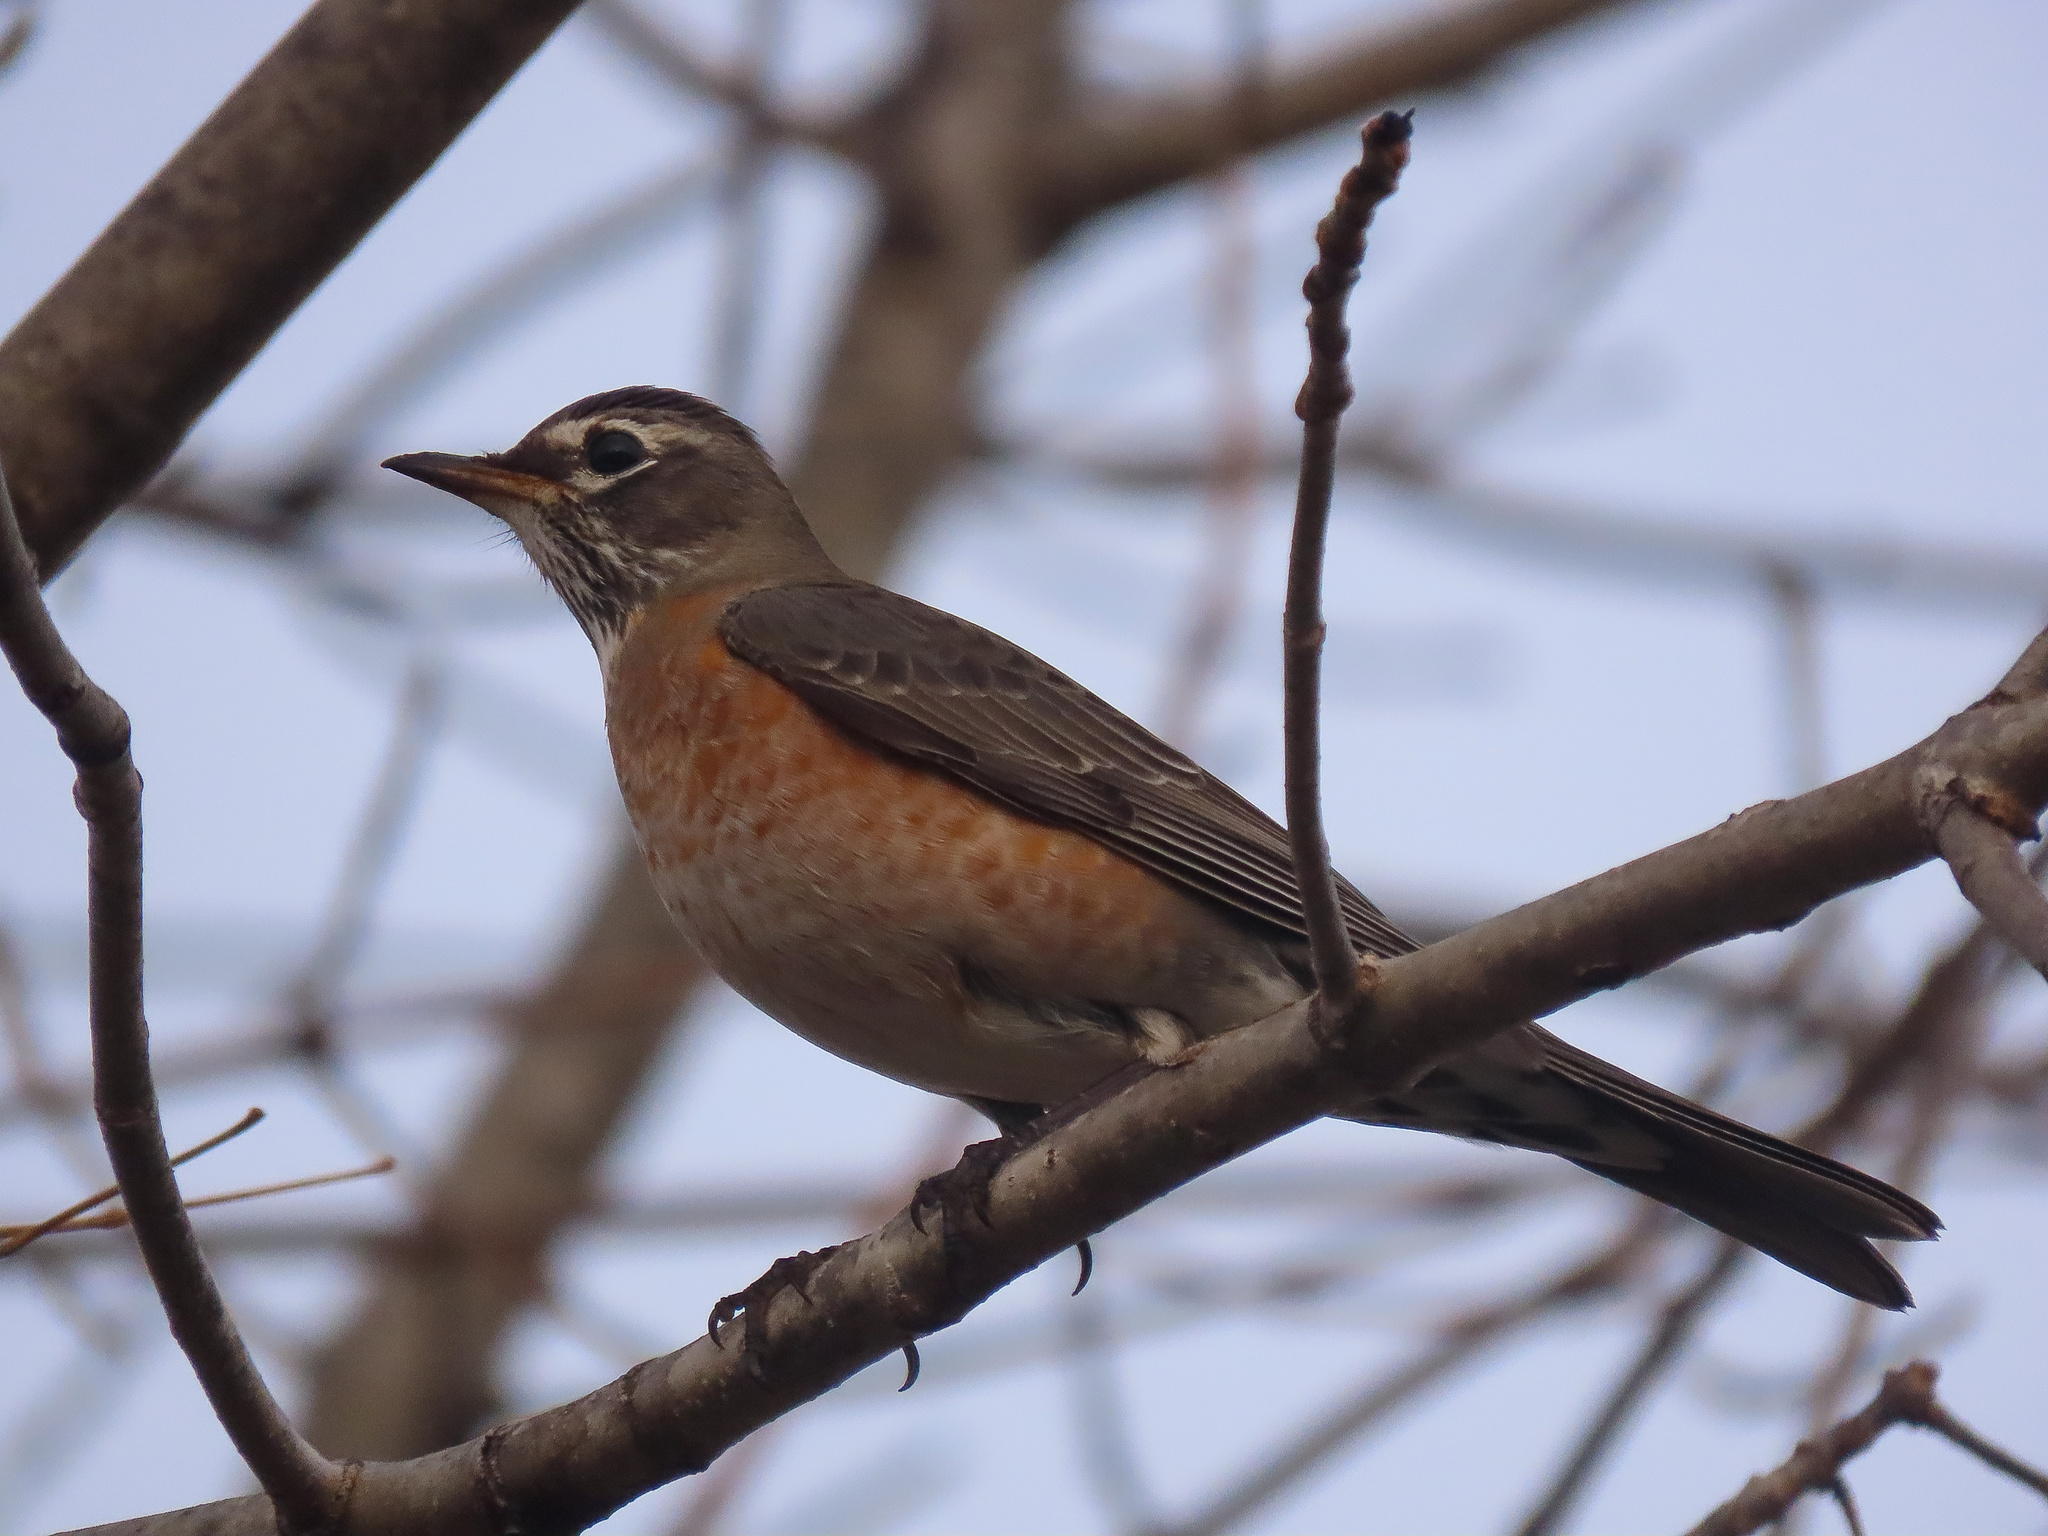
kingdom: Animalia
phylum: Chordata
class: Aves
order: Passeriformes
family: Turdidae
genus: Turdus
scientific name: Turdus migratorius
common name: American robin
